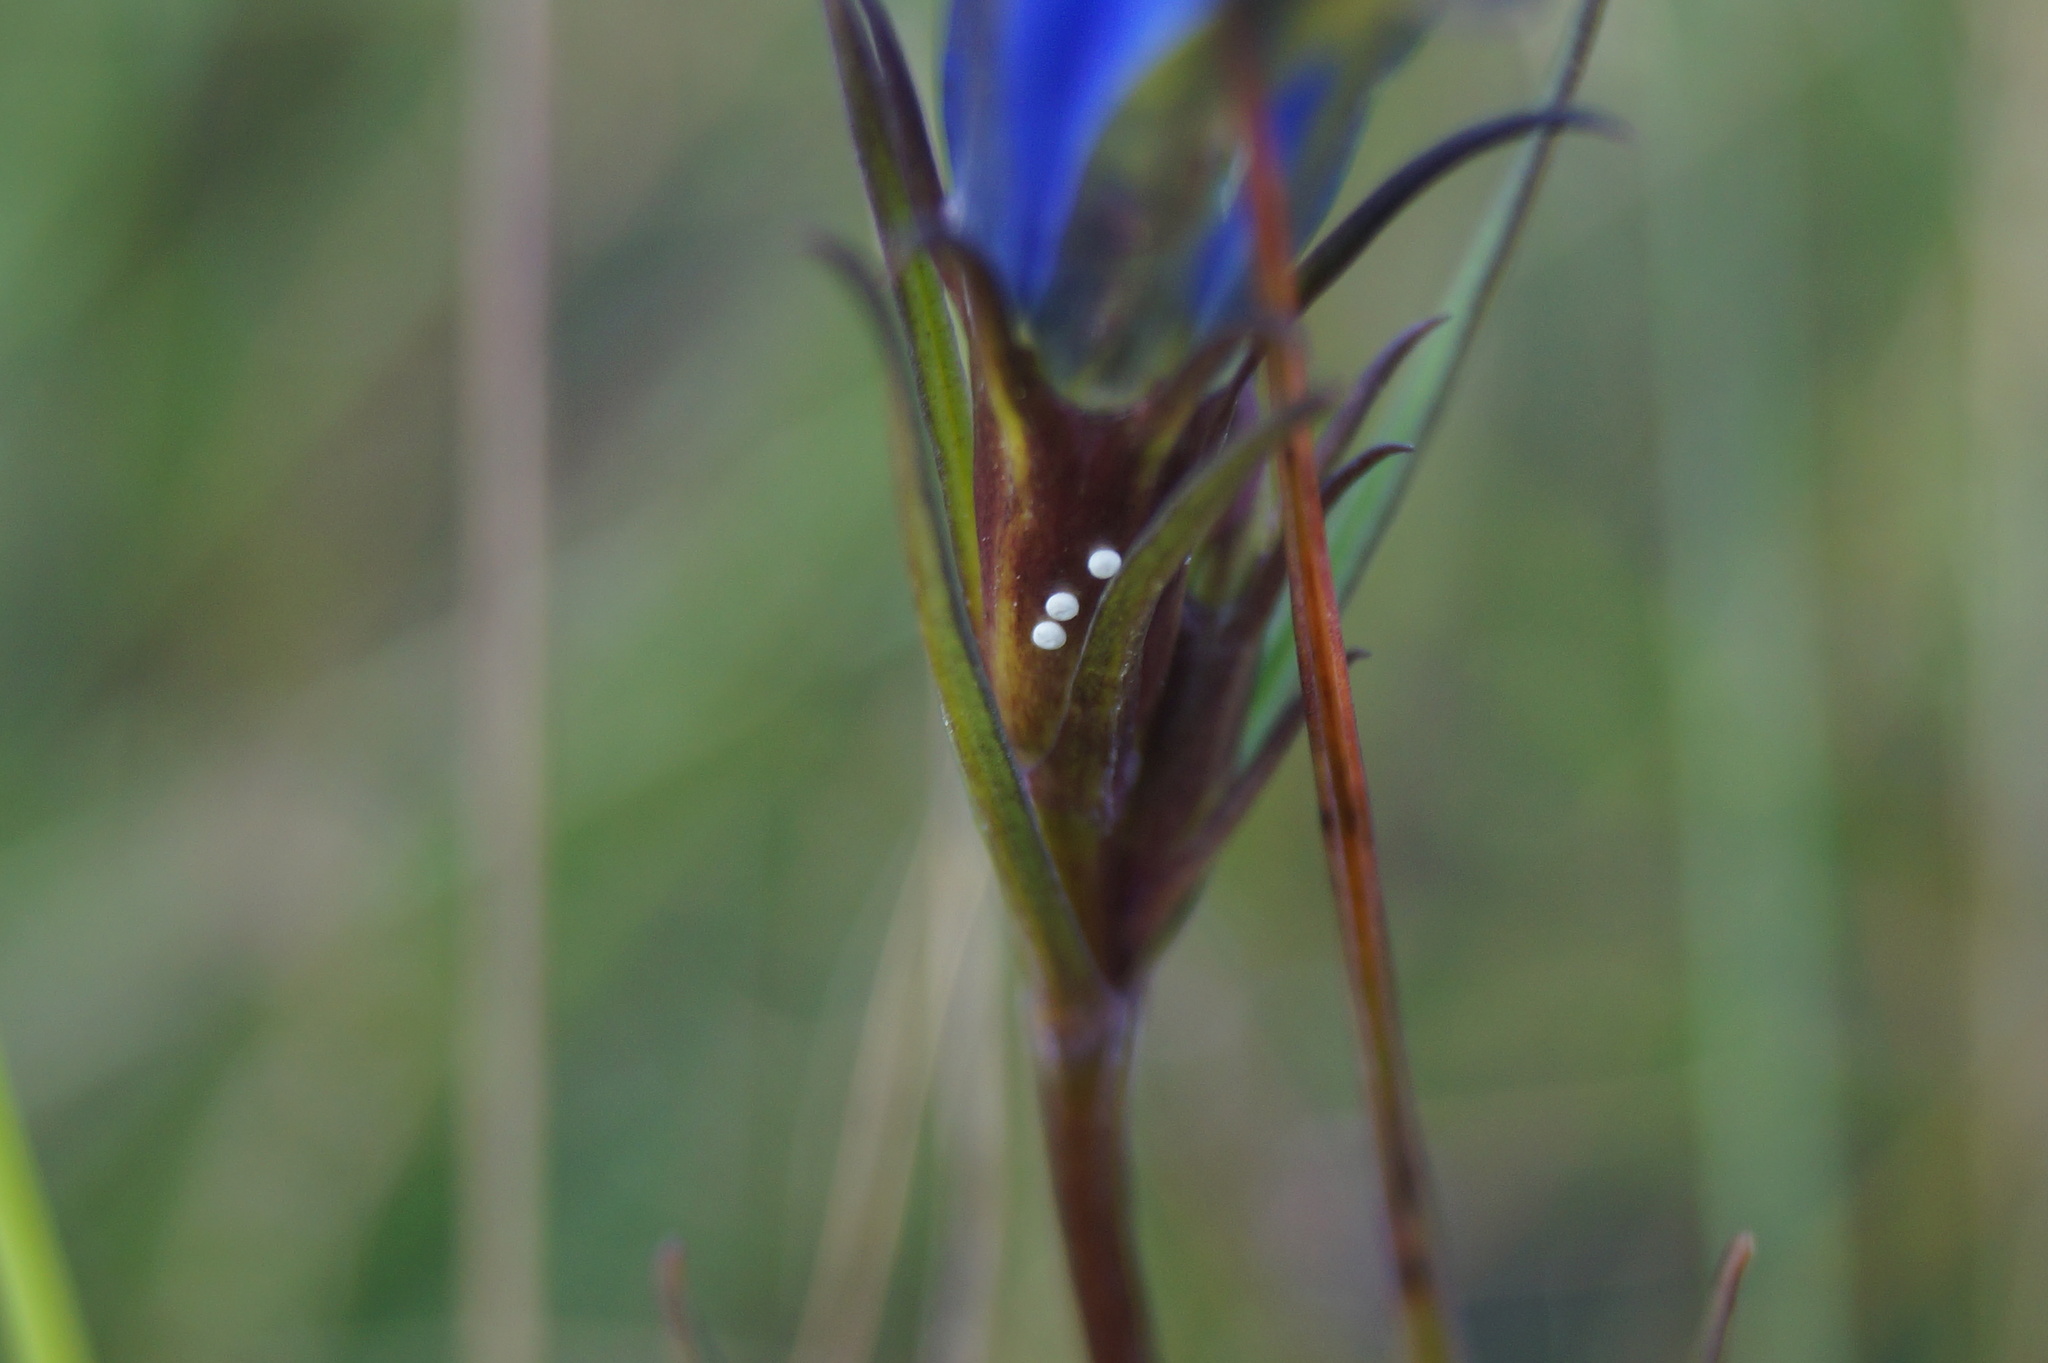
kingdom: Animalia
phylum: Arthropoda
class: Insecta
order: Lepidoptera
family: Lycaenidae
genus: Maculinea
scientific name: Maculinea alcon
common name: Alcon blue
